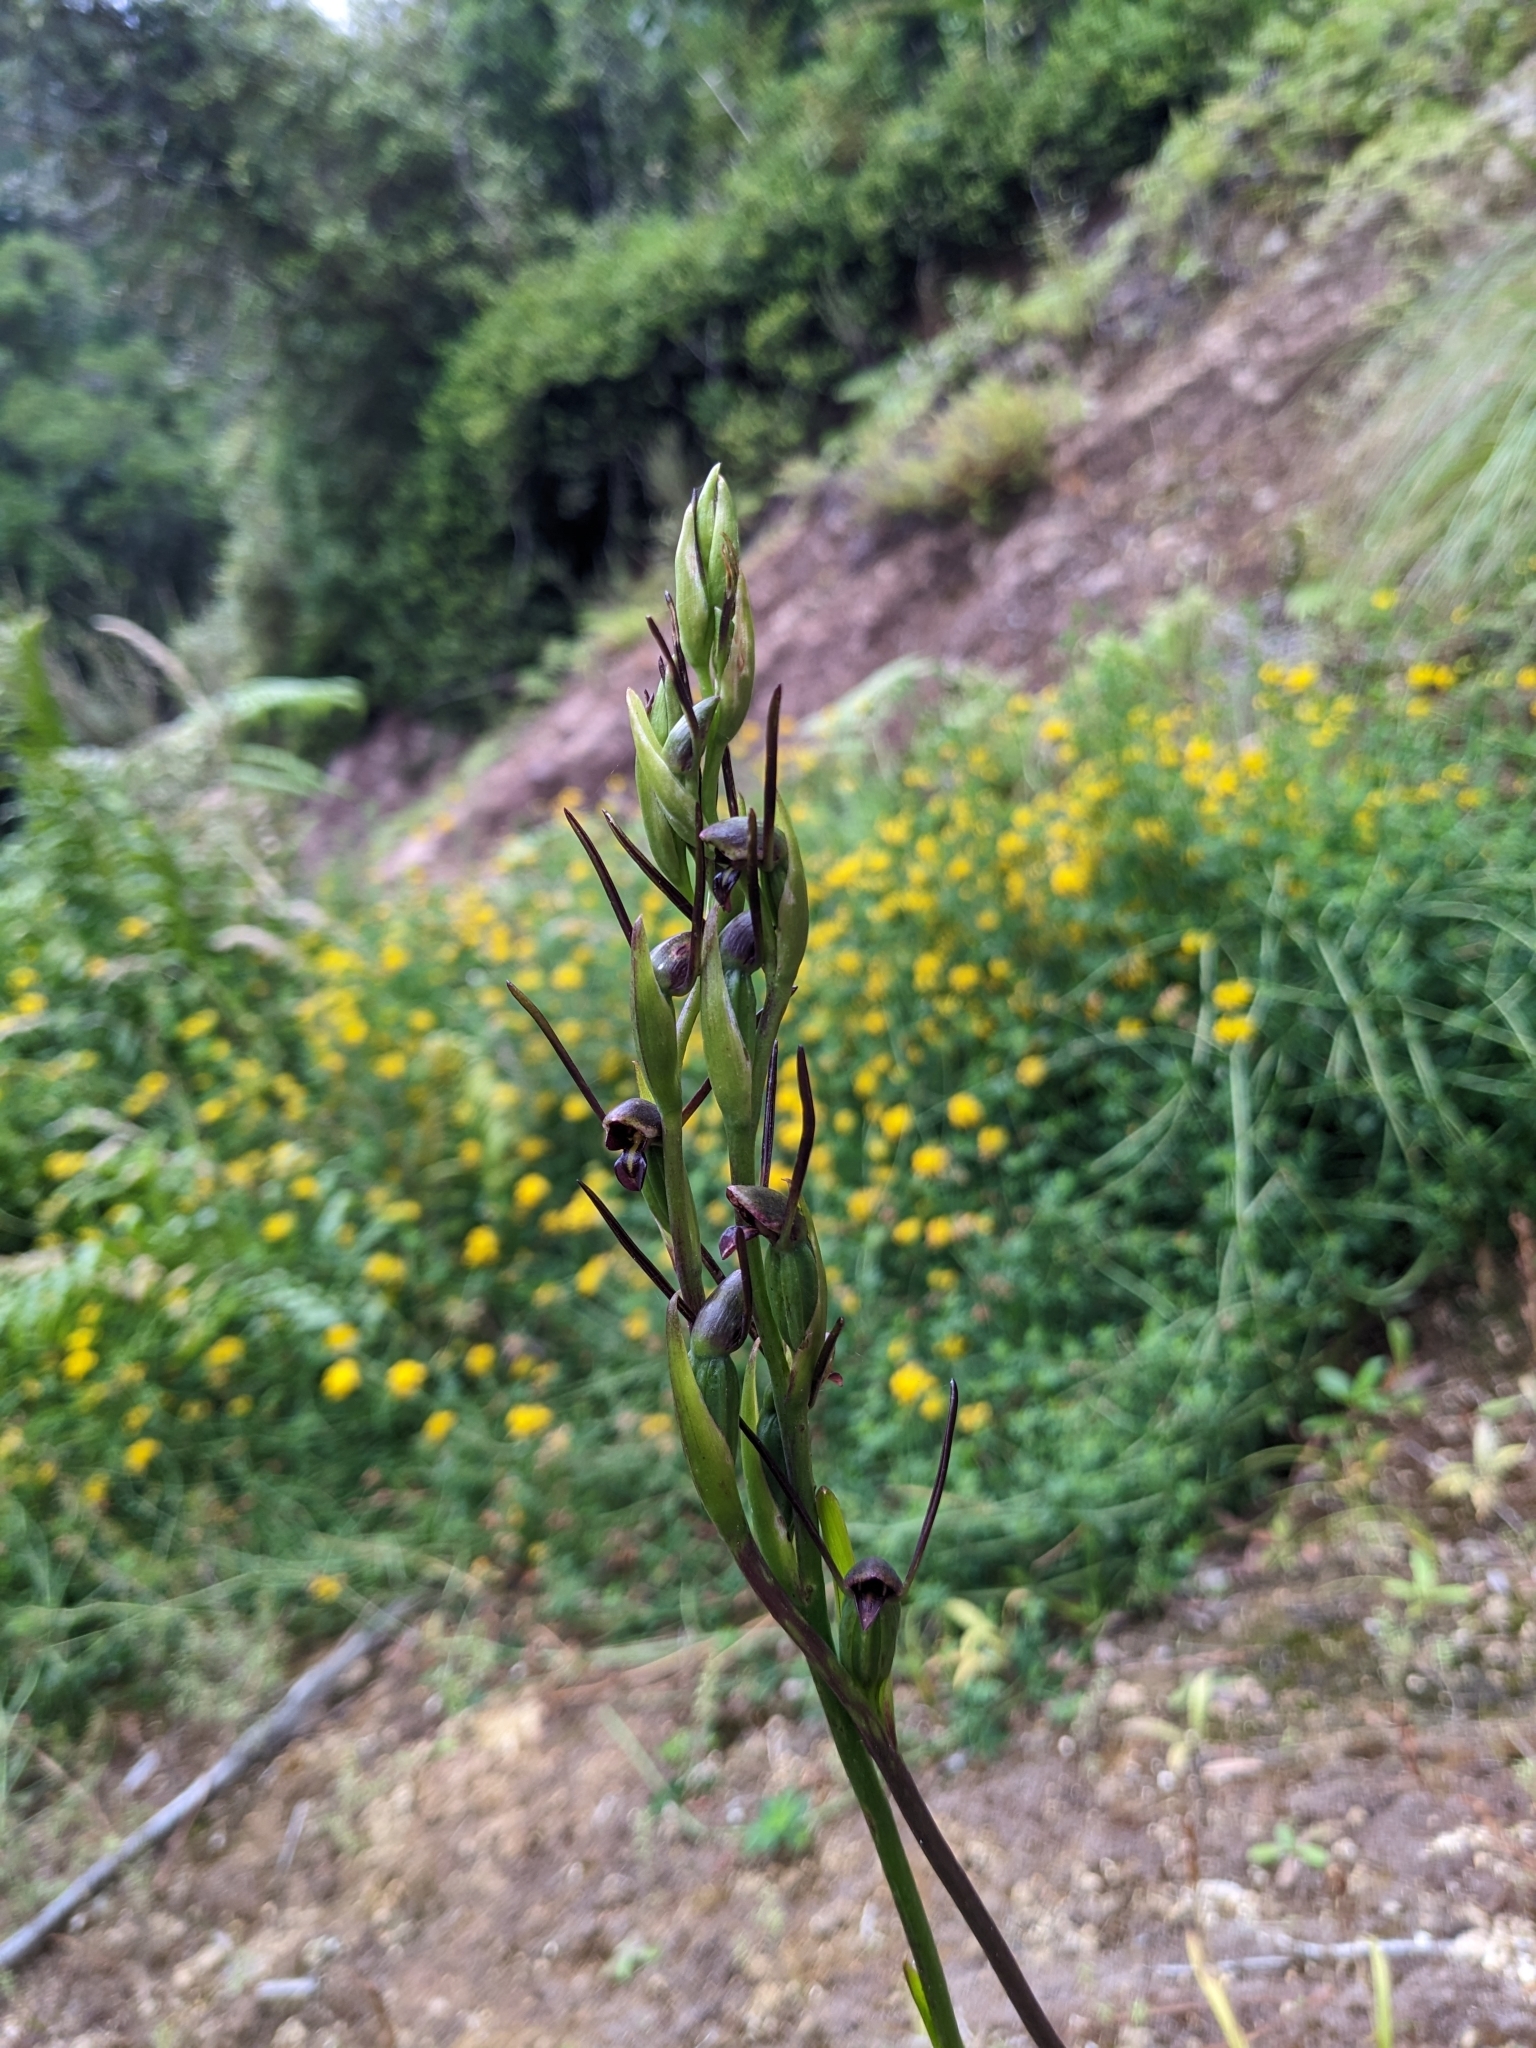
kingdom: Plantae
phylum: Tracheophyta
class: Liliopsida
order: Asparagales
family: Orchidaceae
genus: Orthoceras
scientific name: Orthoceras novae-zeelandiae
